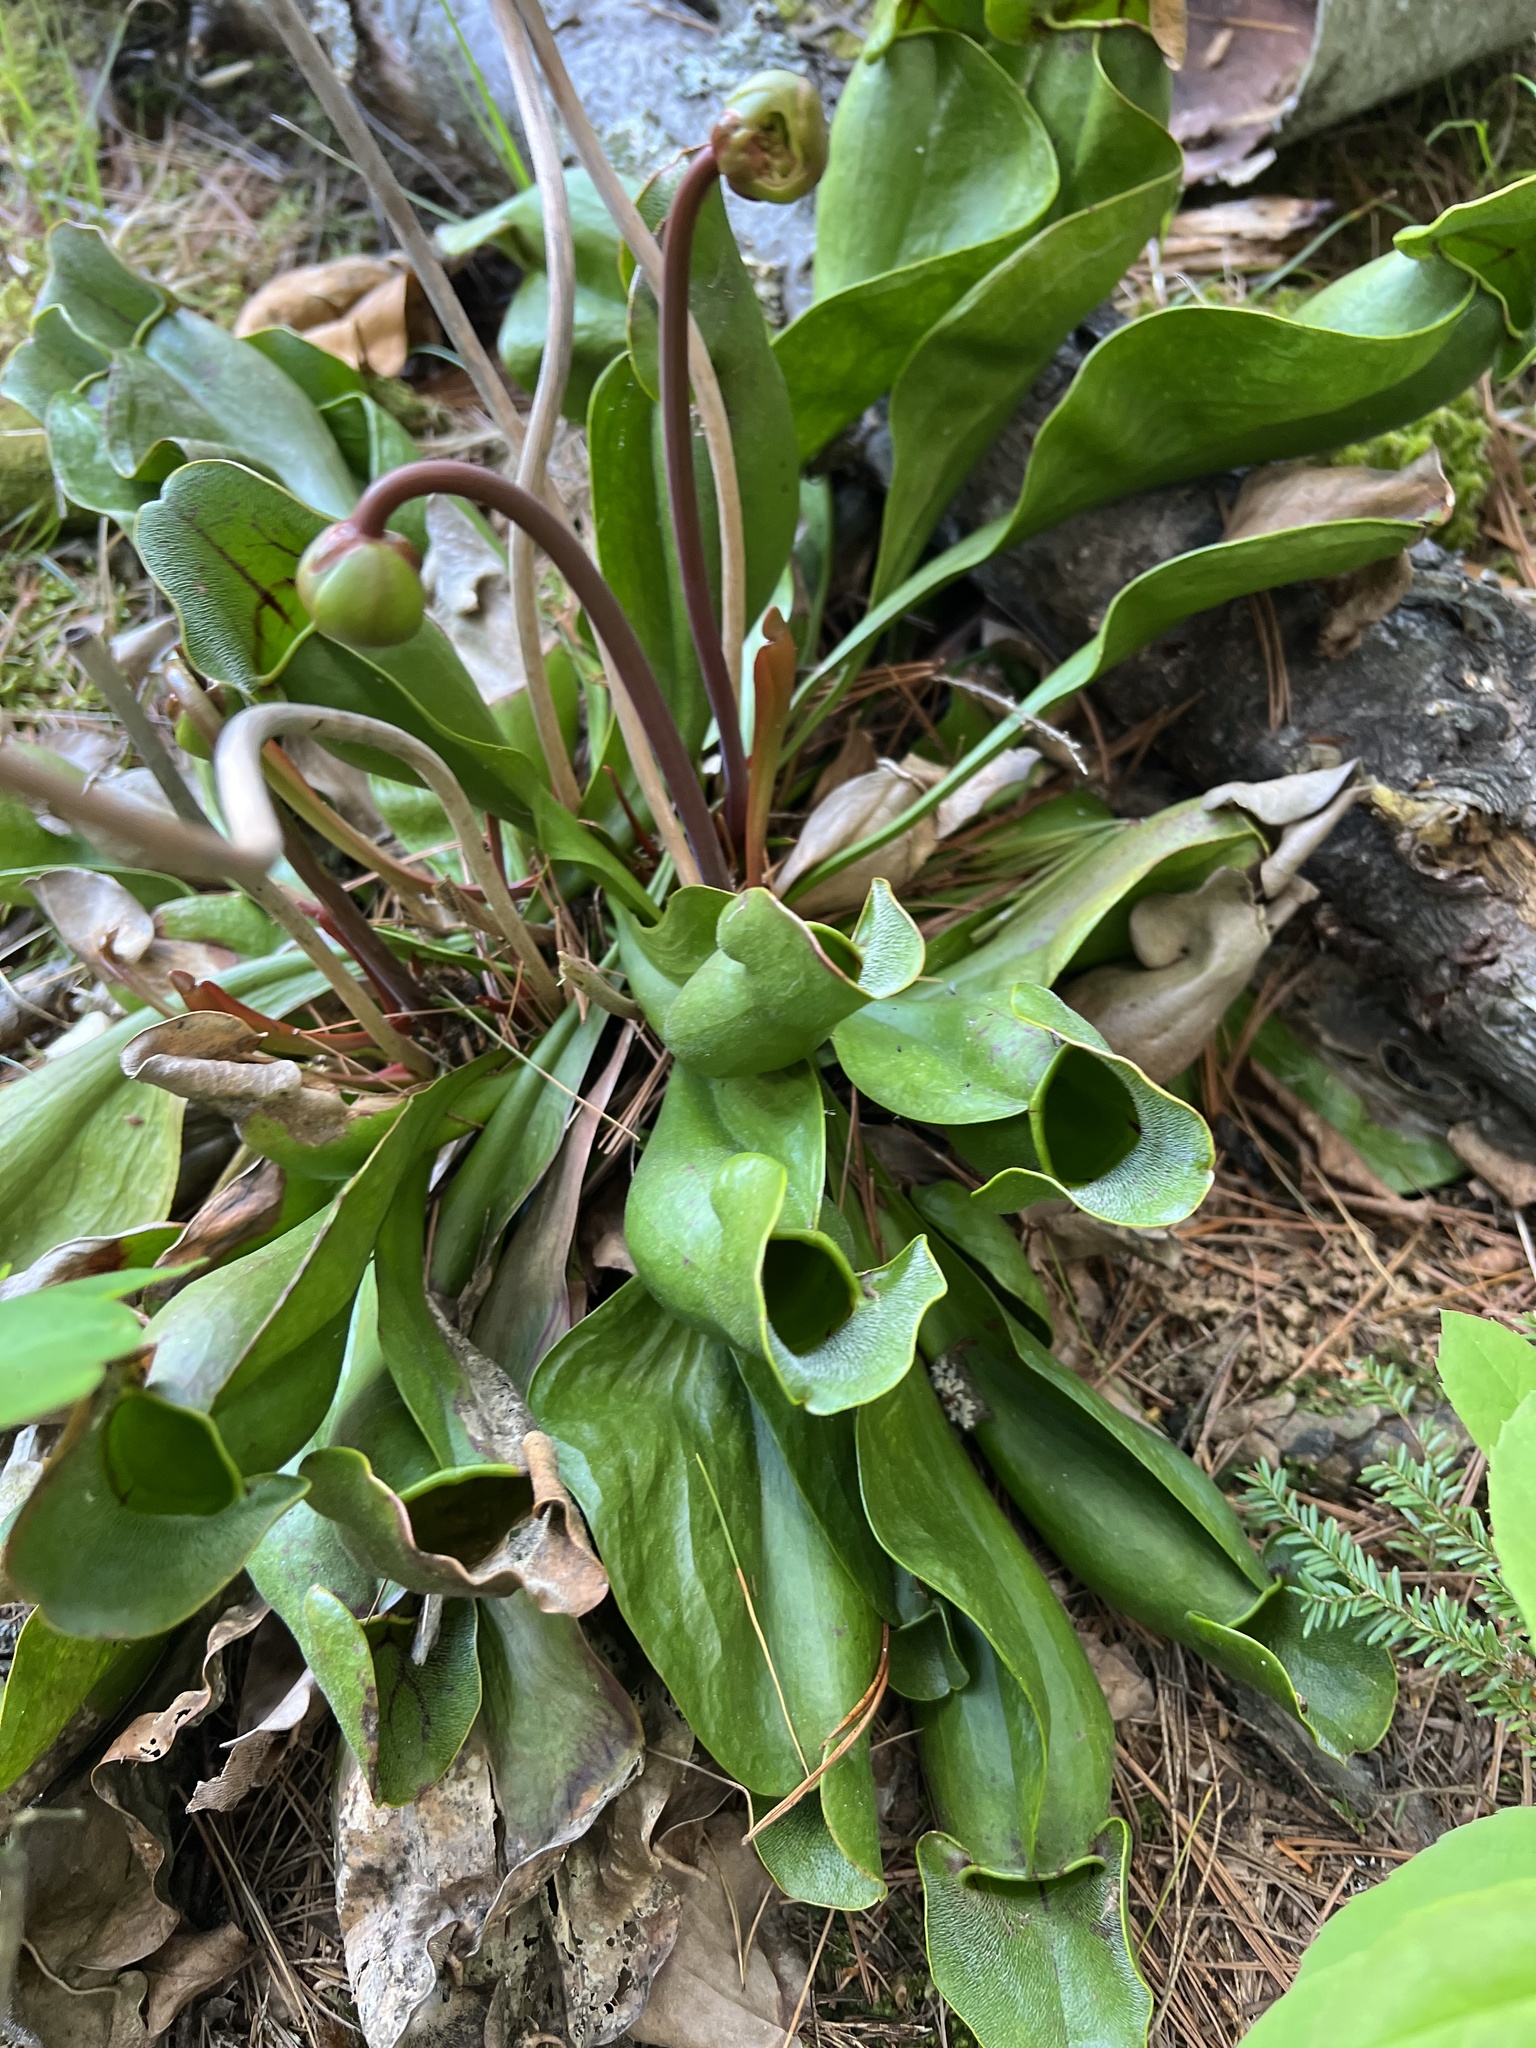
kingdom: Plantae
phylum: Tracheophyta
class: Magnoliopsida
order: Ericales
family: Sarraceniaceae
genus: Sarracenia
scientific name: Sarracenia purpurea
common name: Pitcherplant
